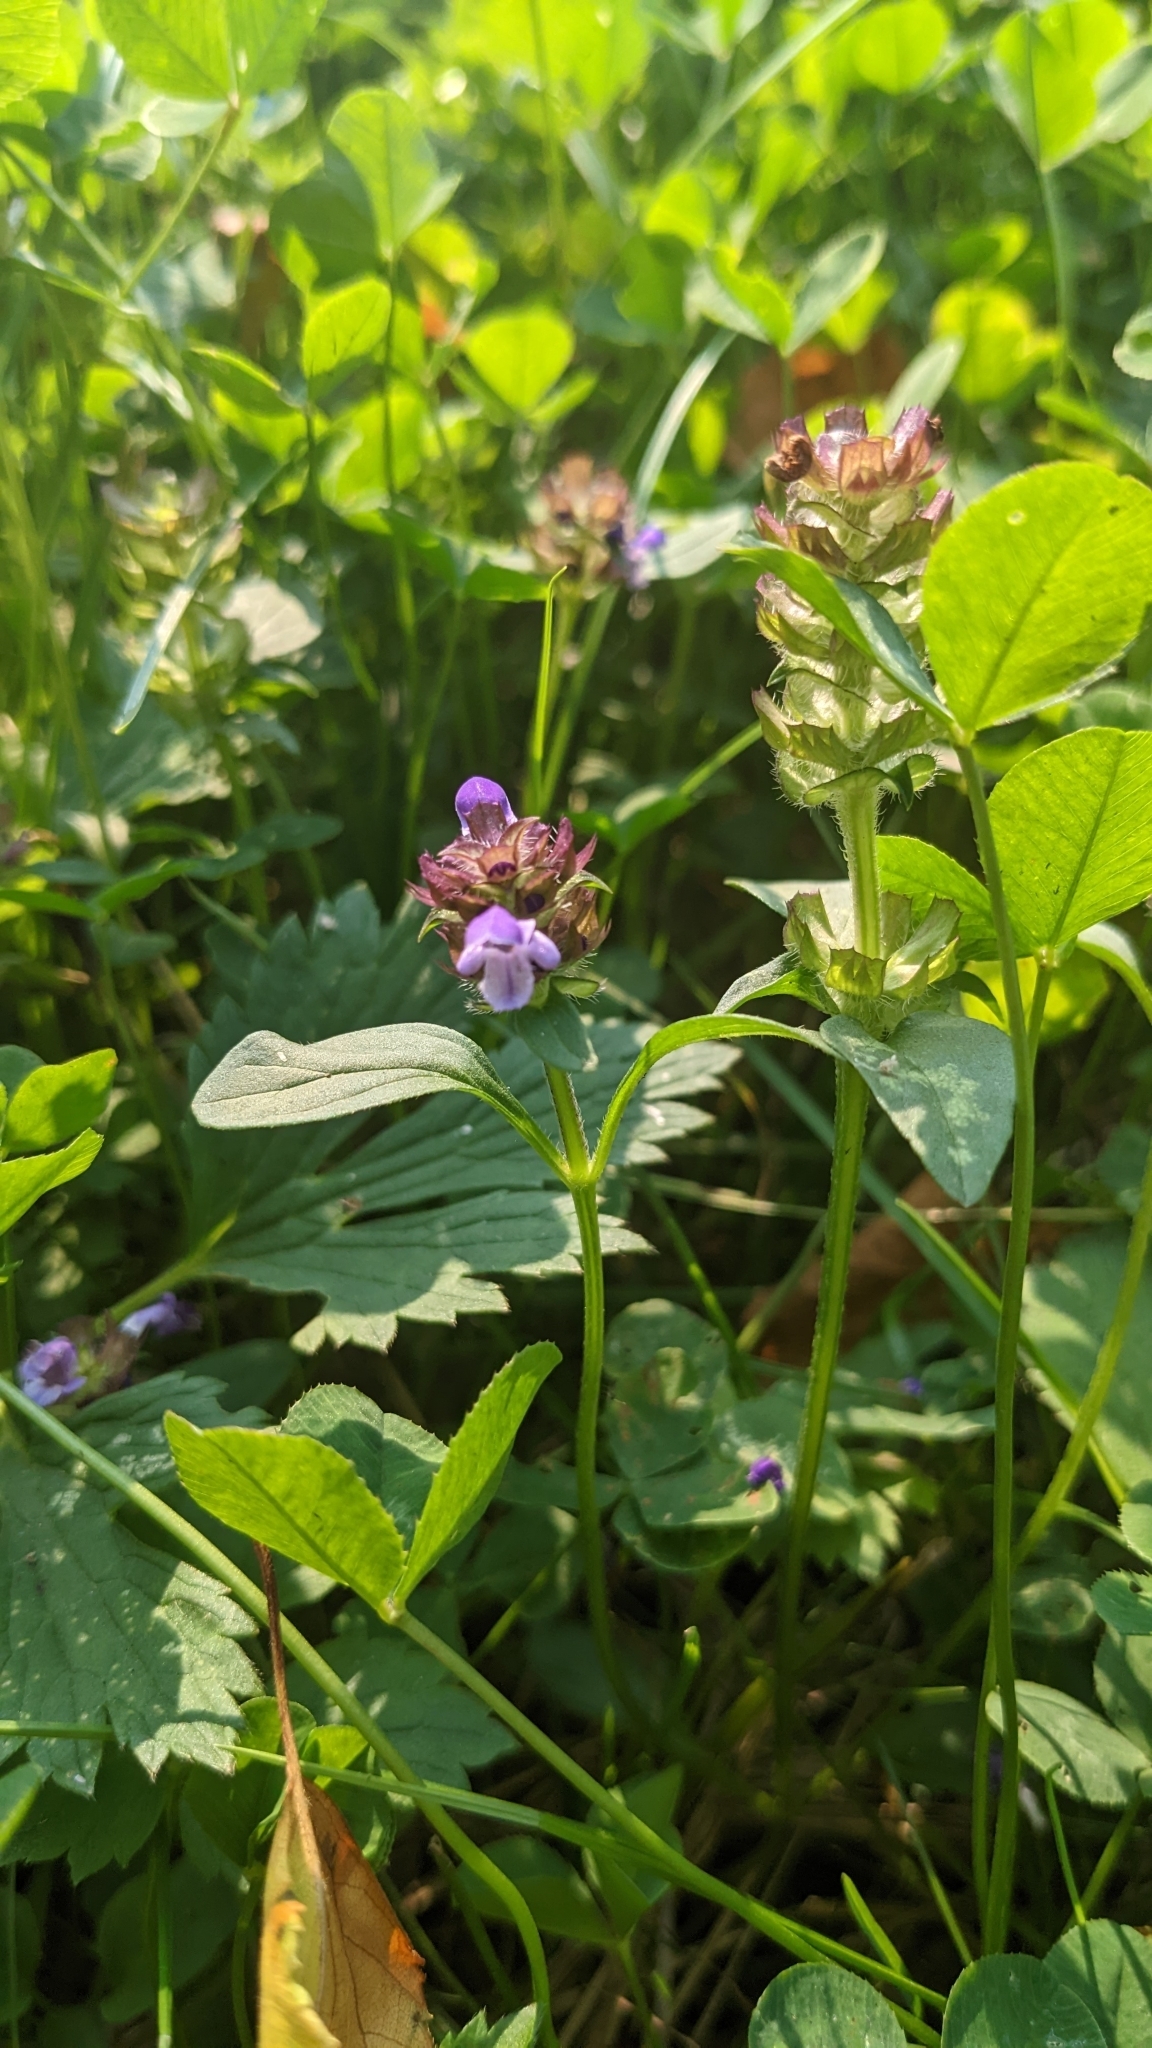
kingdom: Plantae
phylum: Tracheophyta
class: Magnoliopsida
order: Lamiales
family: Lamiaceae
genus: Prunella
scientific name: Prunella vulgaris
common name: Heal-all
